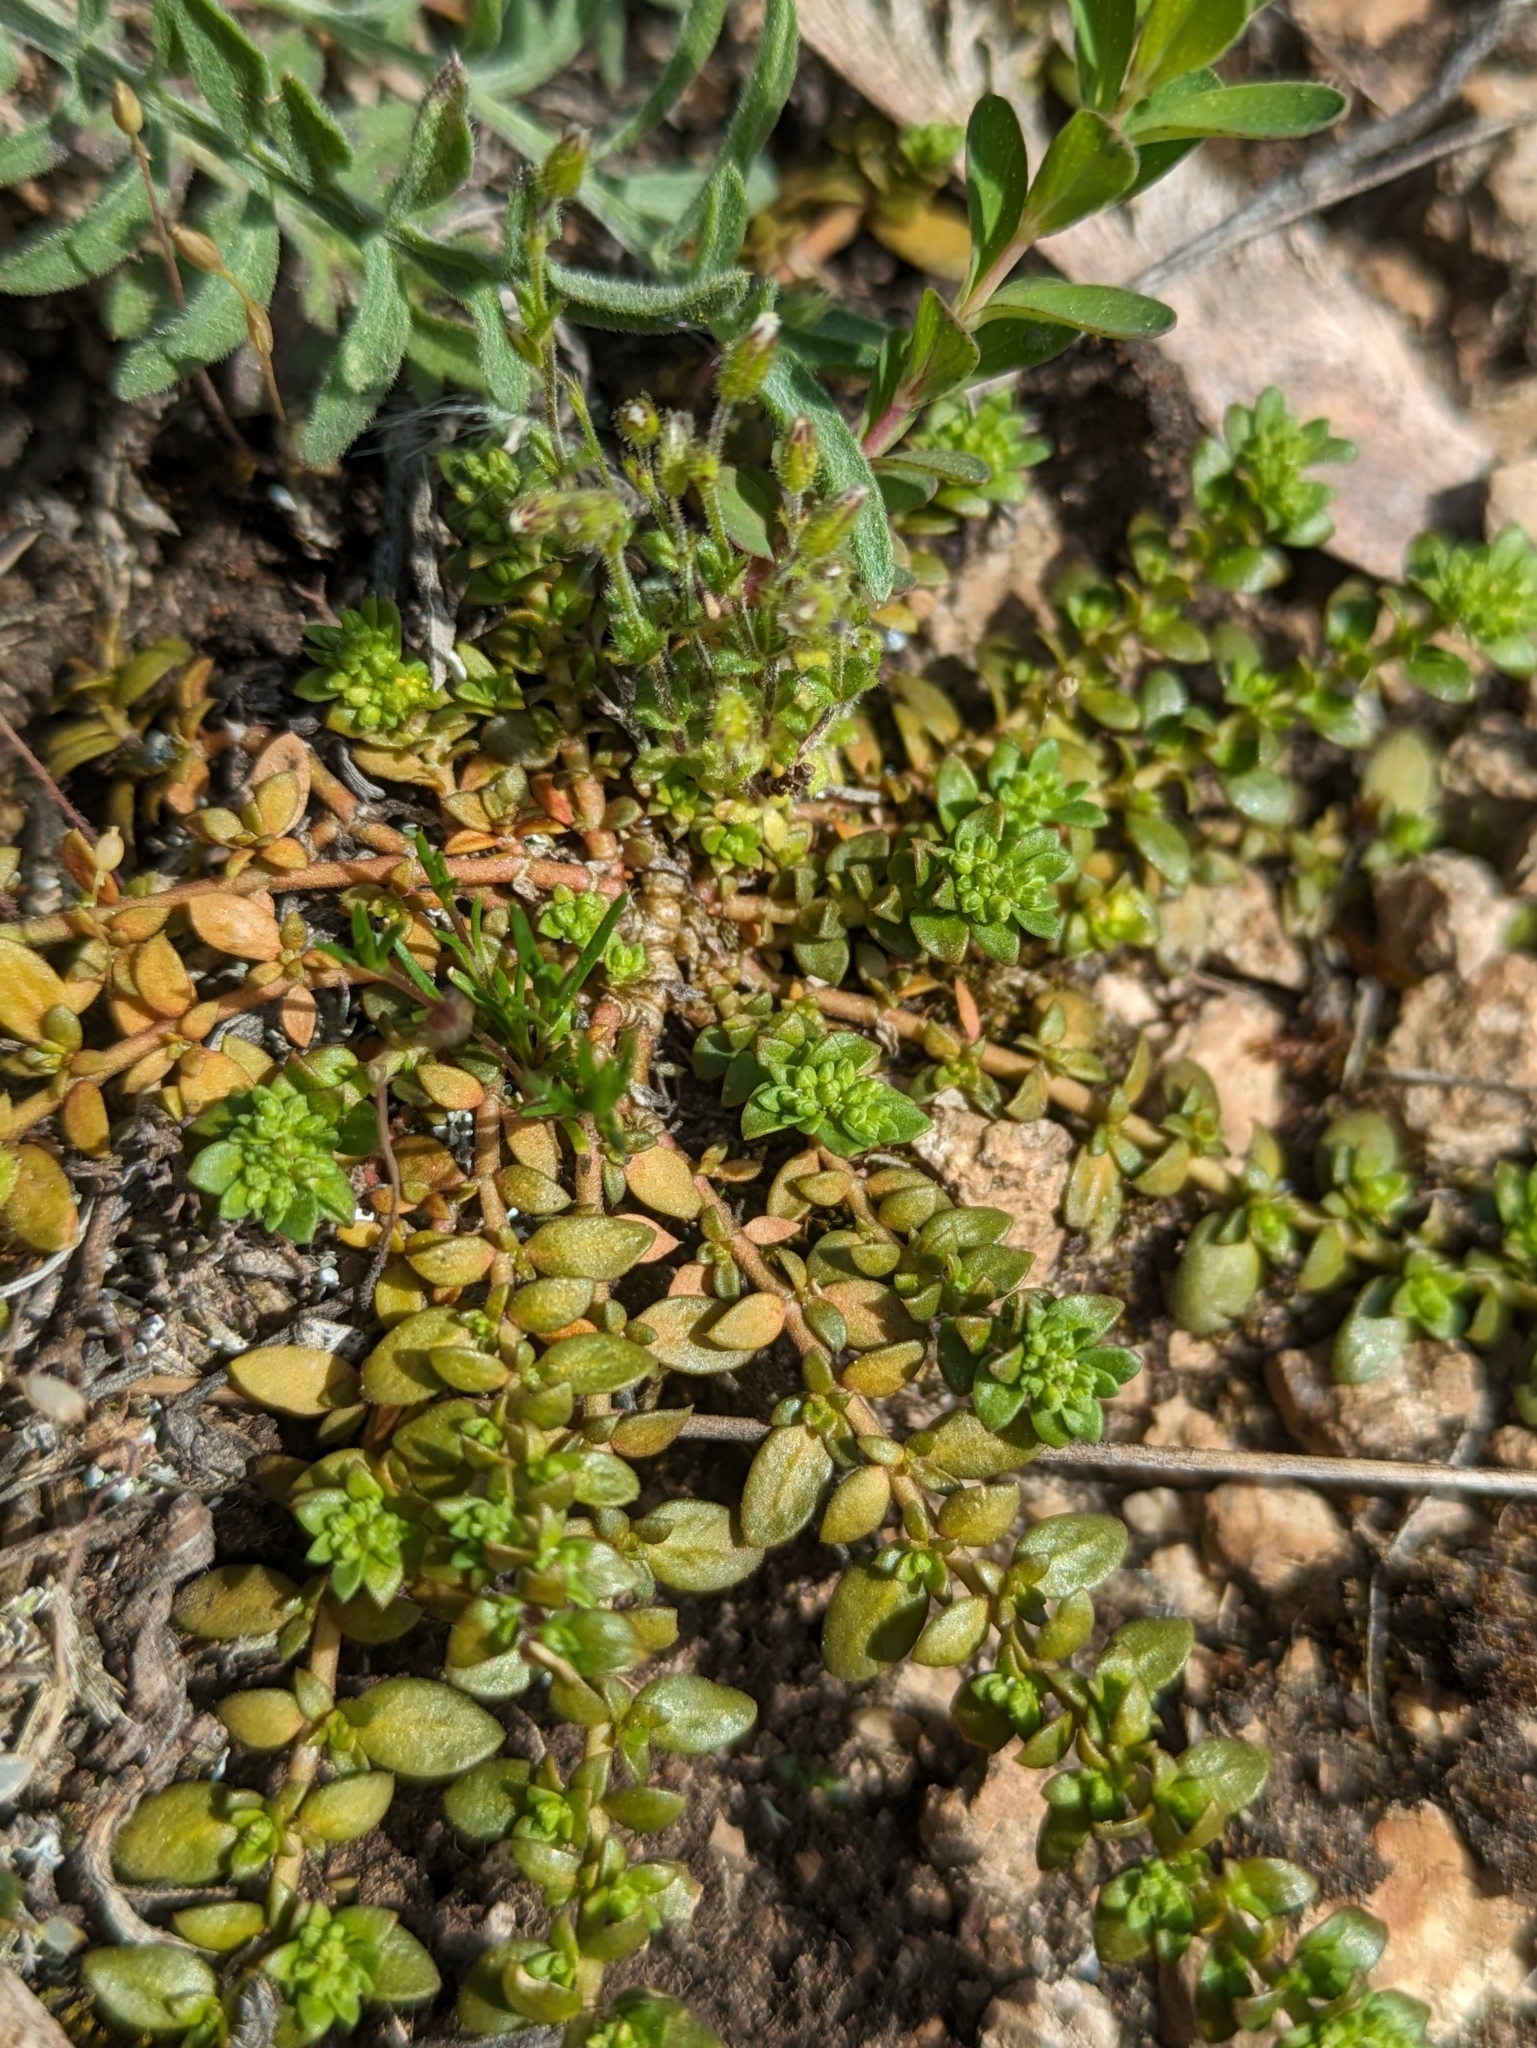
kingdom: Plantae
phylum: Tracheophyta
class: Magnoliopsida
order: Caryophyllales
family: Caryophyllaceae
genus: Herniaria
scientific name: Herniaria glabra
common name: Smooth rupturewort
